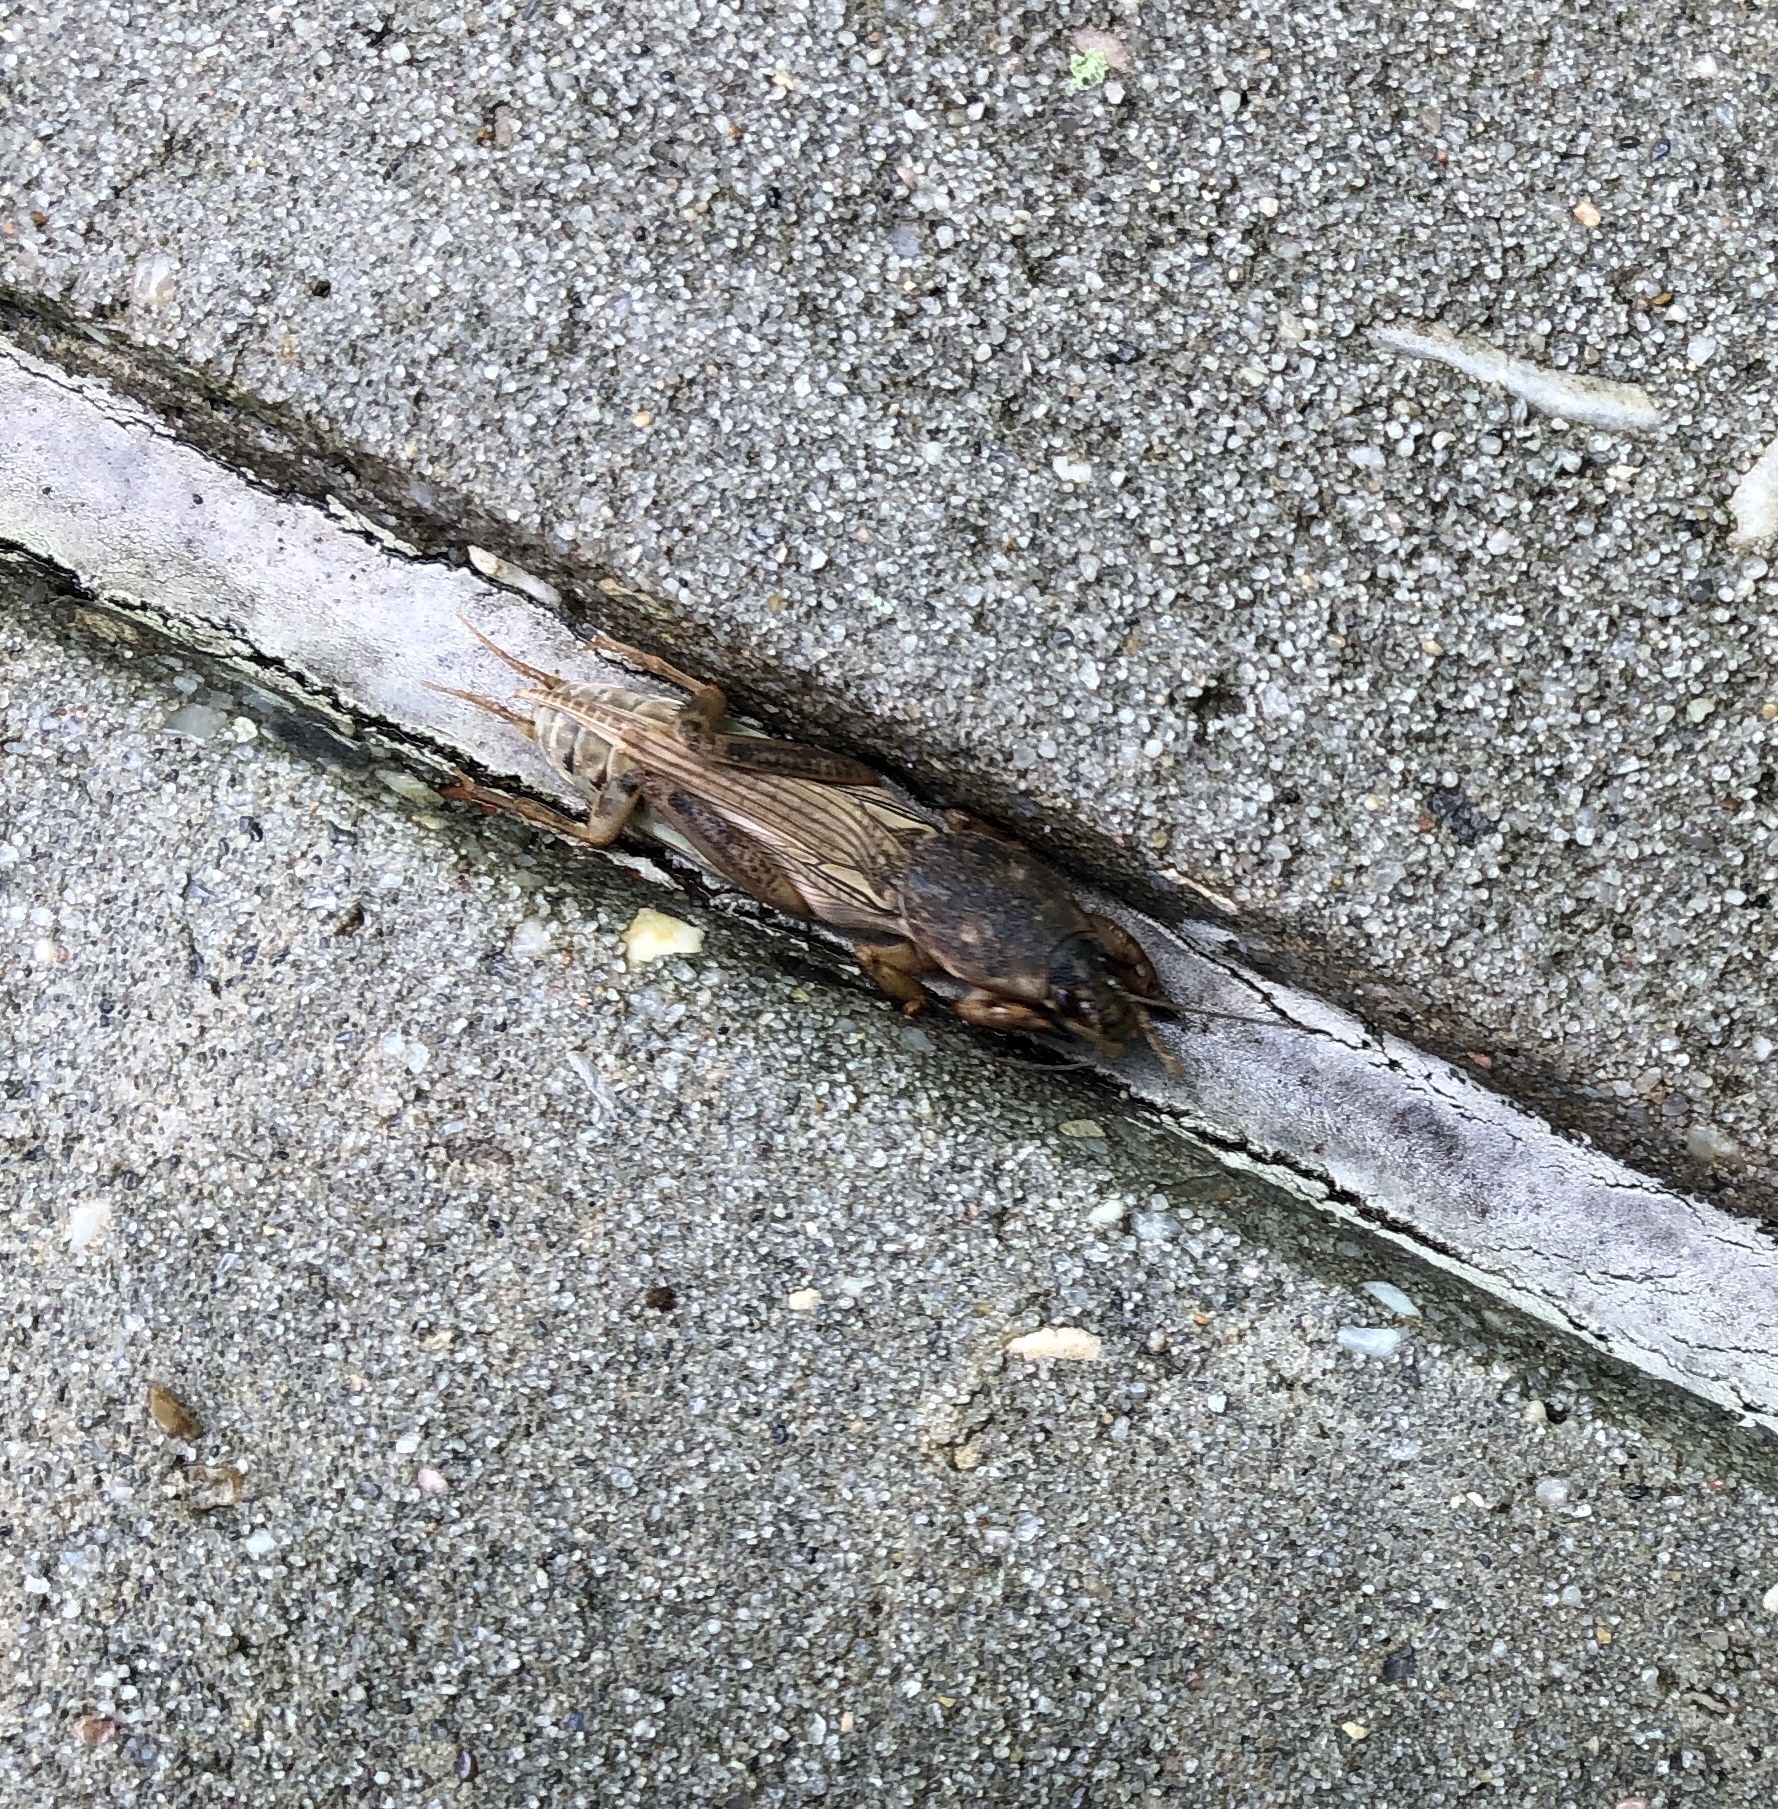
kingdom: Animalia
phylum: Arthropoda
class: Insecta
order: Orthoptera
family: Gryllotalpidae
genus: Neoscapteriscus
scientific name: Neoscapteriscus borellii
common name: Southern mole cricket
